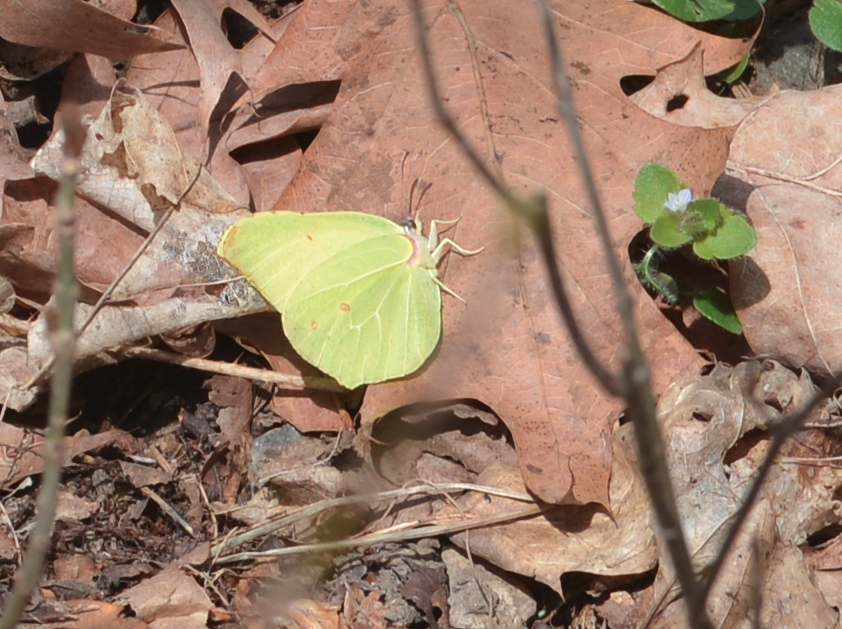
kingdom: Animalia
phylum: Arthropoda
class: Insecta
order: Lepidoptera
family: Pieridae
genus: Gonepteryx
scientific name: Gonepteryx rhamni
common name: Brimstone
